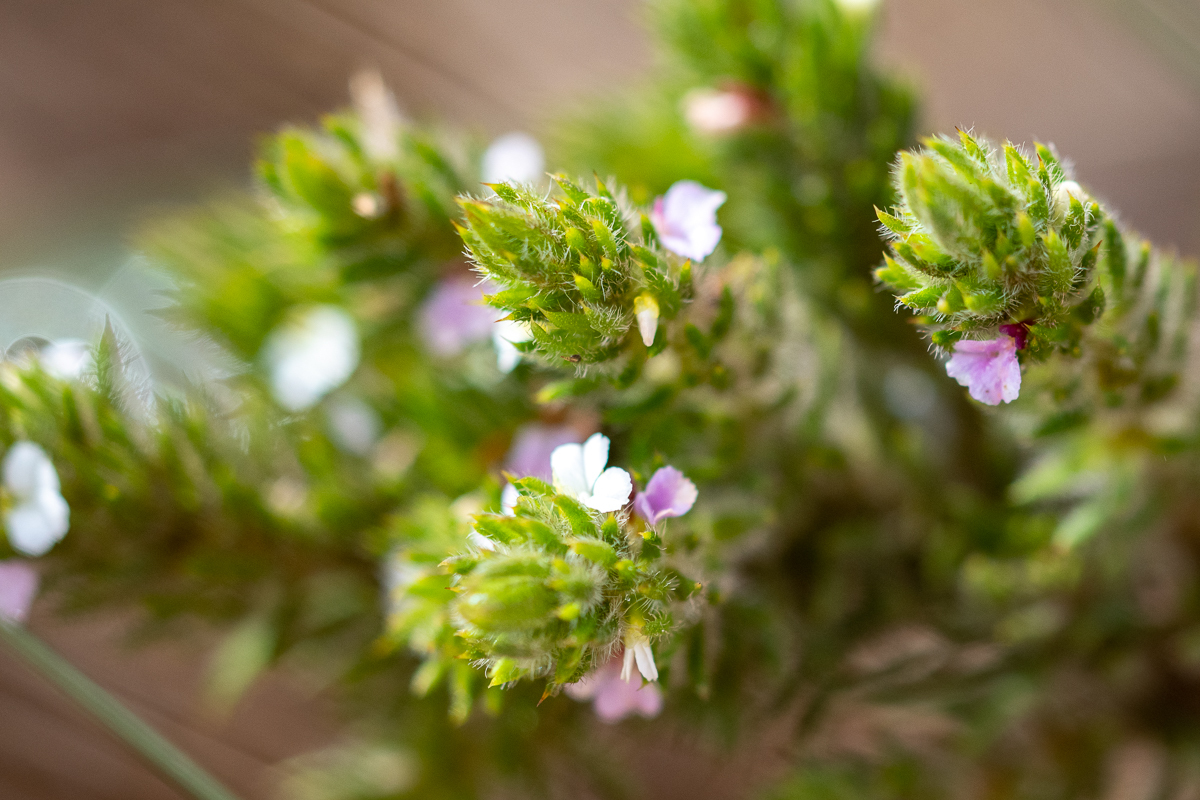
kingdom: Plantae
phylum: Tracheophyta
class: Magnoliopsida
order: Fabales
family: Polygalaceae
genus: Muraltia
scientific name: Muraltia alopecuroides
